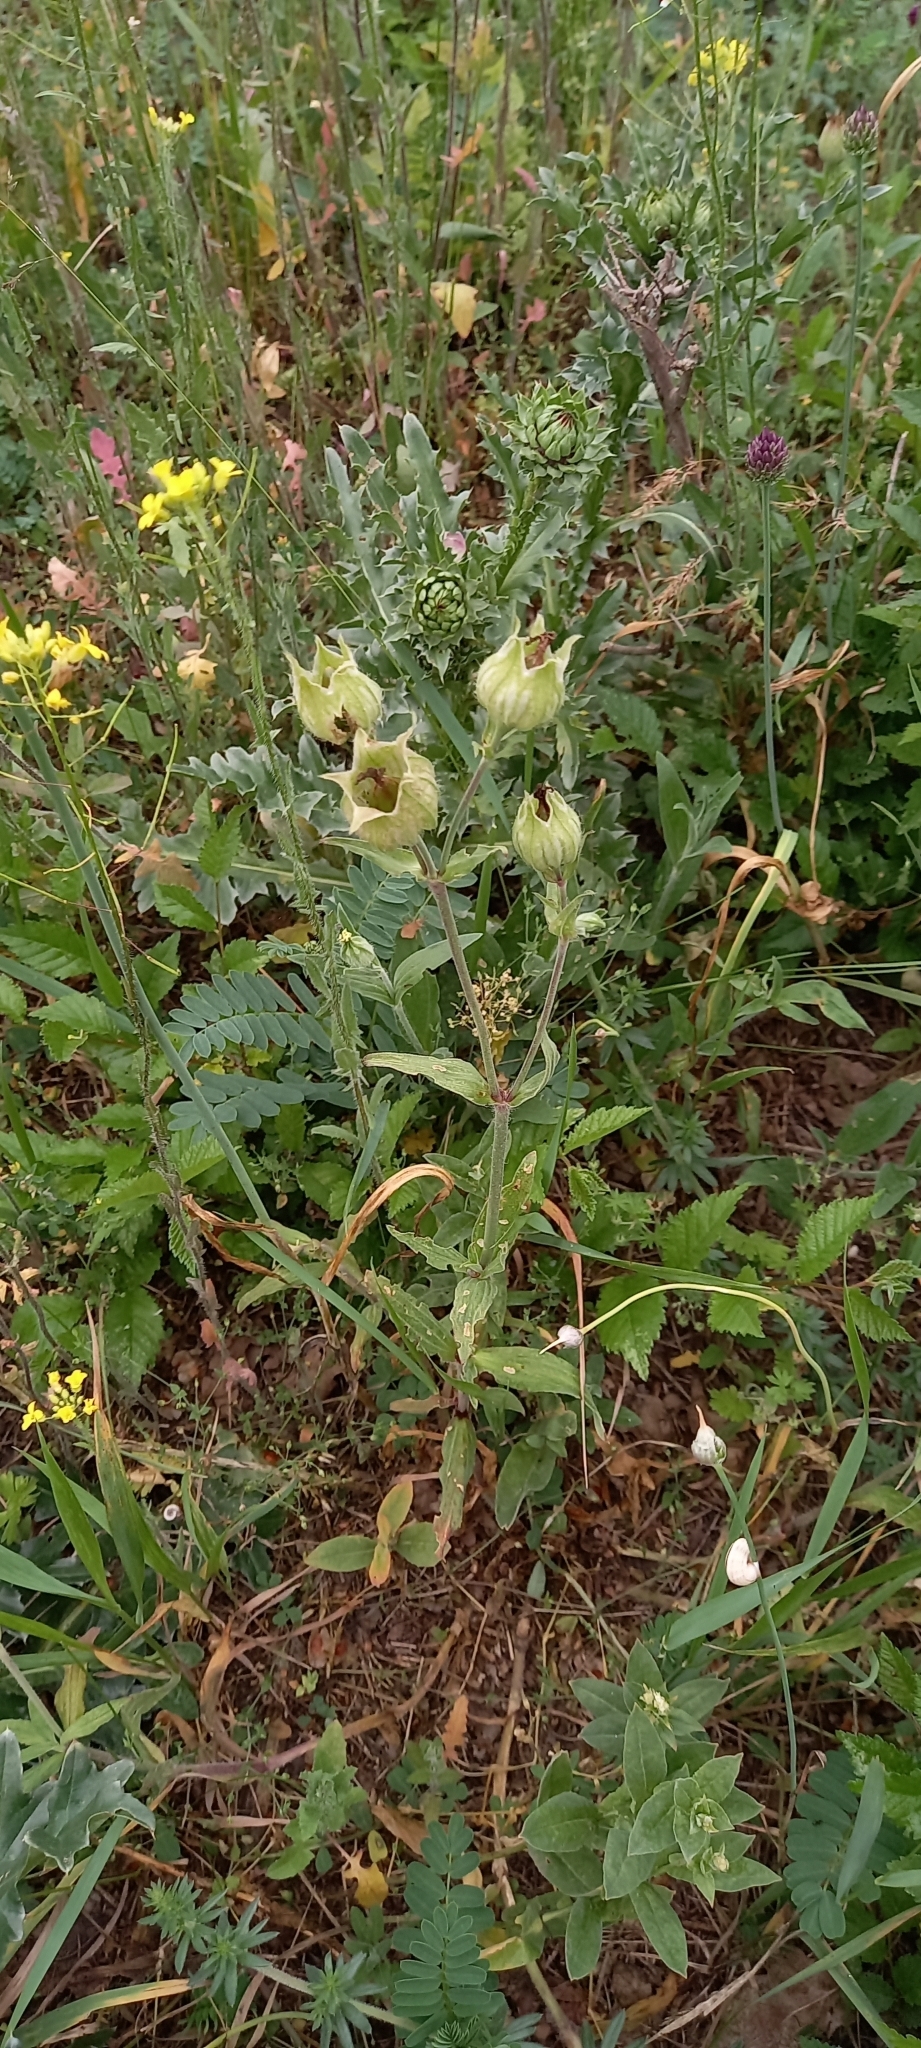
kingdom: Plantae
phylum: Tracheophyta
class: Magnoliopsida
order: Caryophyllales
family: Caryophyllaceae
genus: Silene
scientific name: Silene latifolia
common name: White campion
